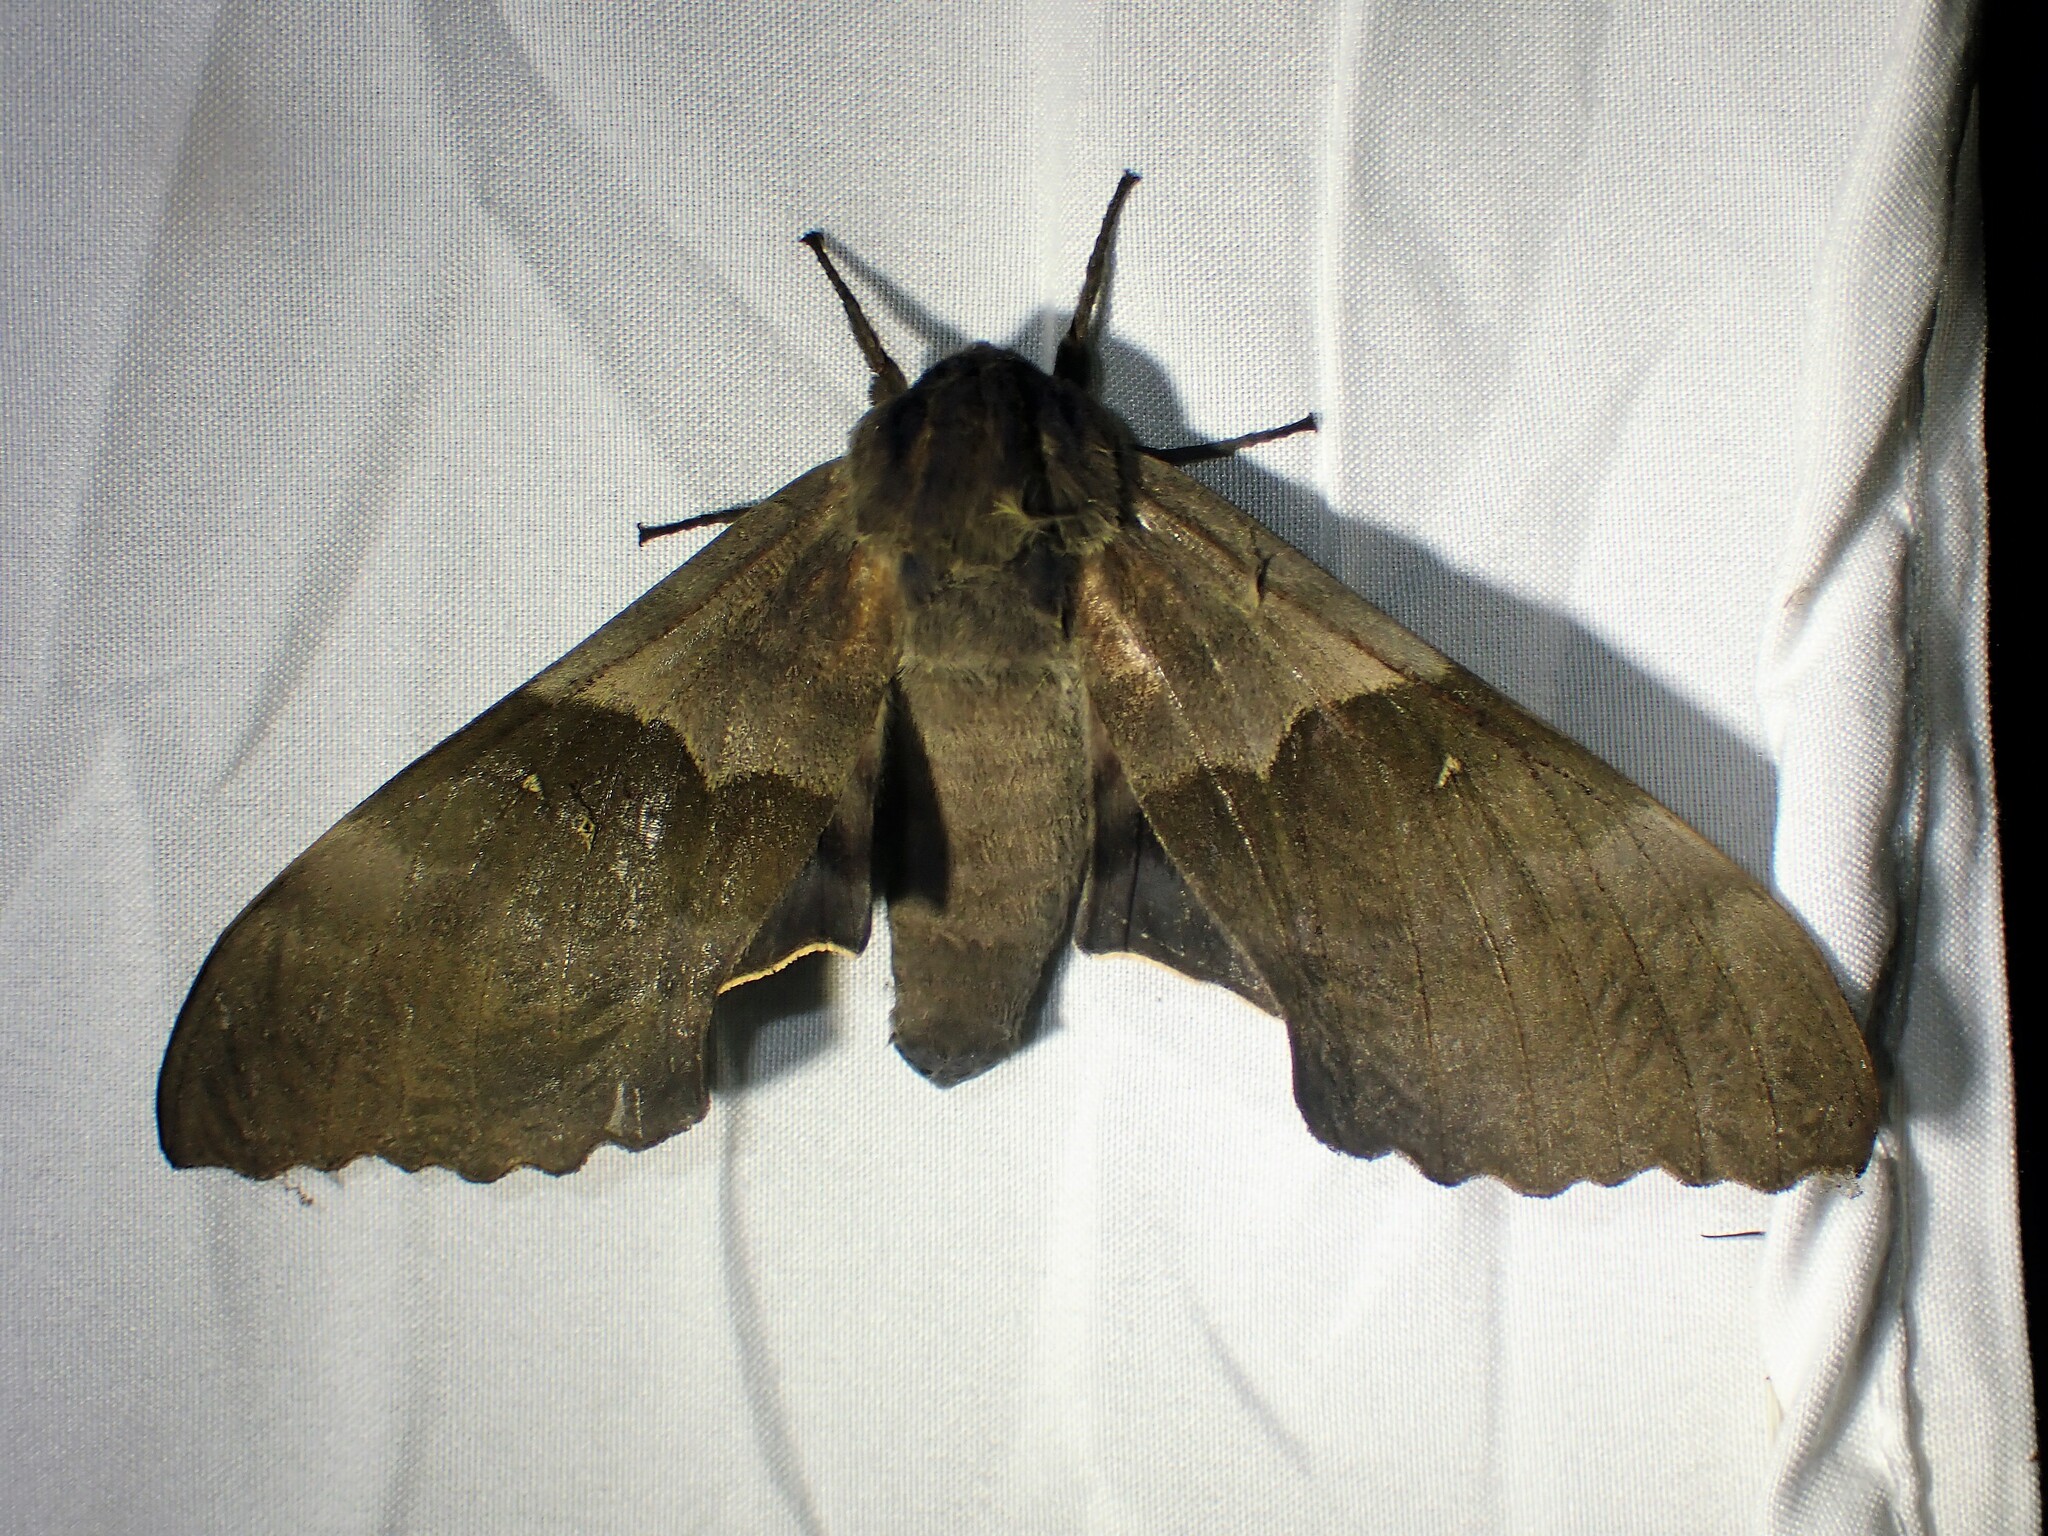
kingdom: Animalia
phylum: Arthropoda
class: Insecta
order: Lepidoptera
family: Sphingidae
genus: Pachysphinx
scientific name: Pachysphinx modesta
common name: Big poplar sphinx
